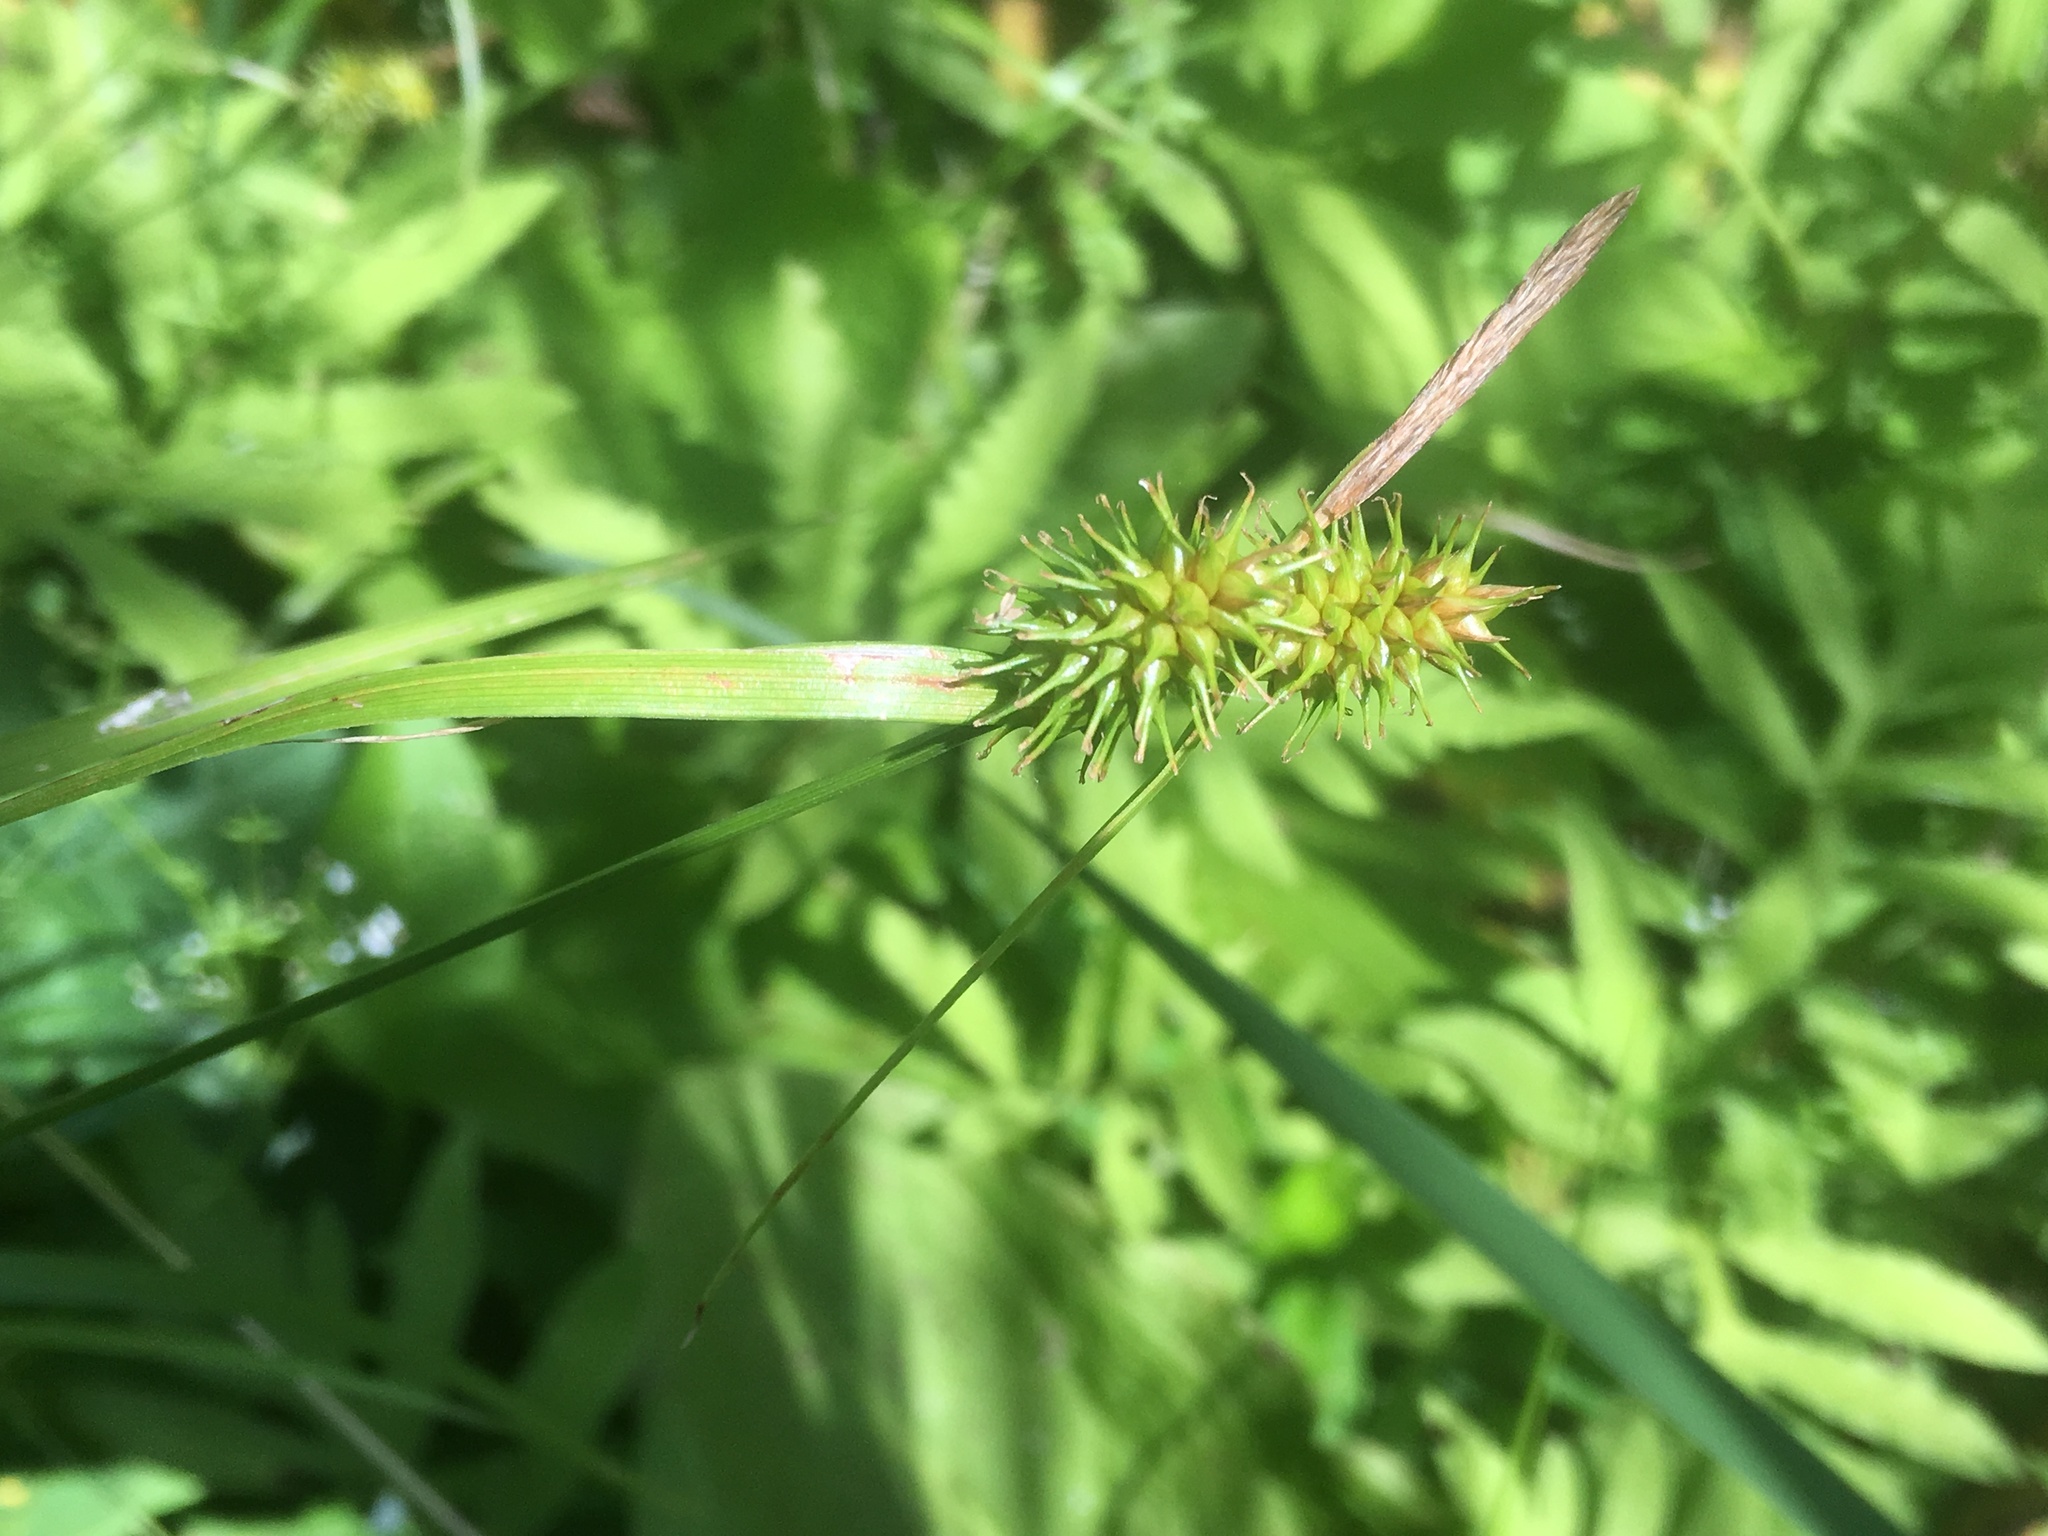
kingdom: Plantae
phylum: Tracheophyta
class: Liliopsida
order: Poales
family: Cyperaceae
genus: Carex
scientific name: Carex flava
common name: Large yellow-sedge
